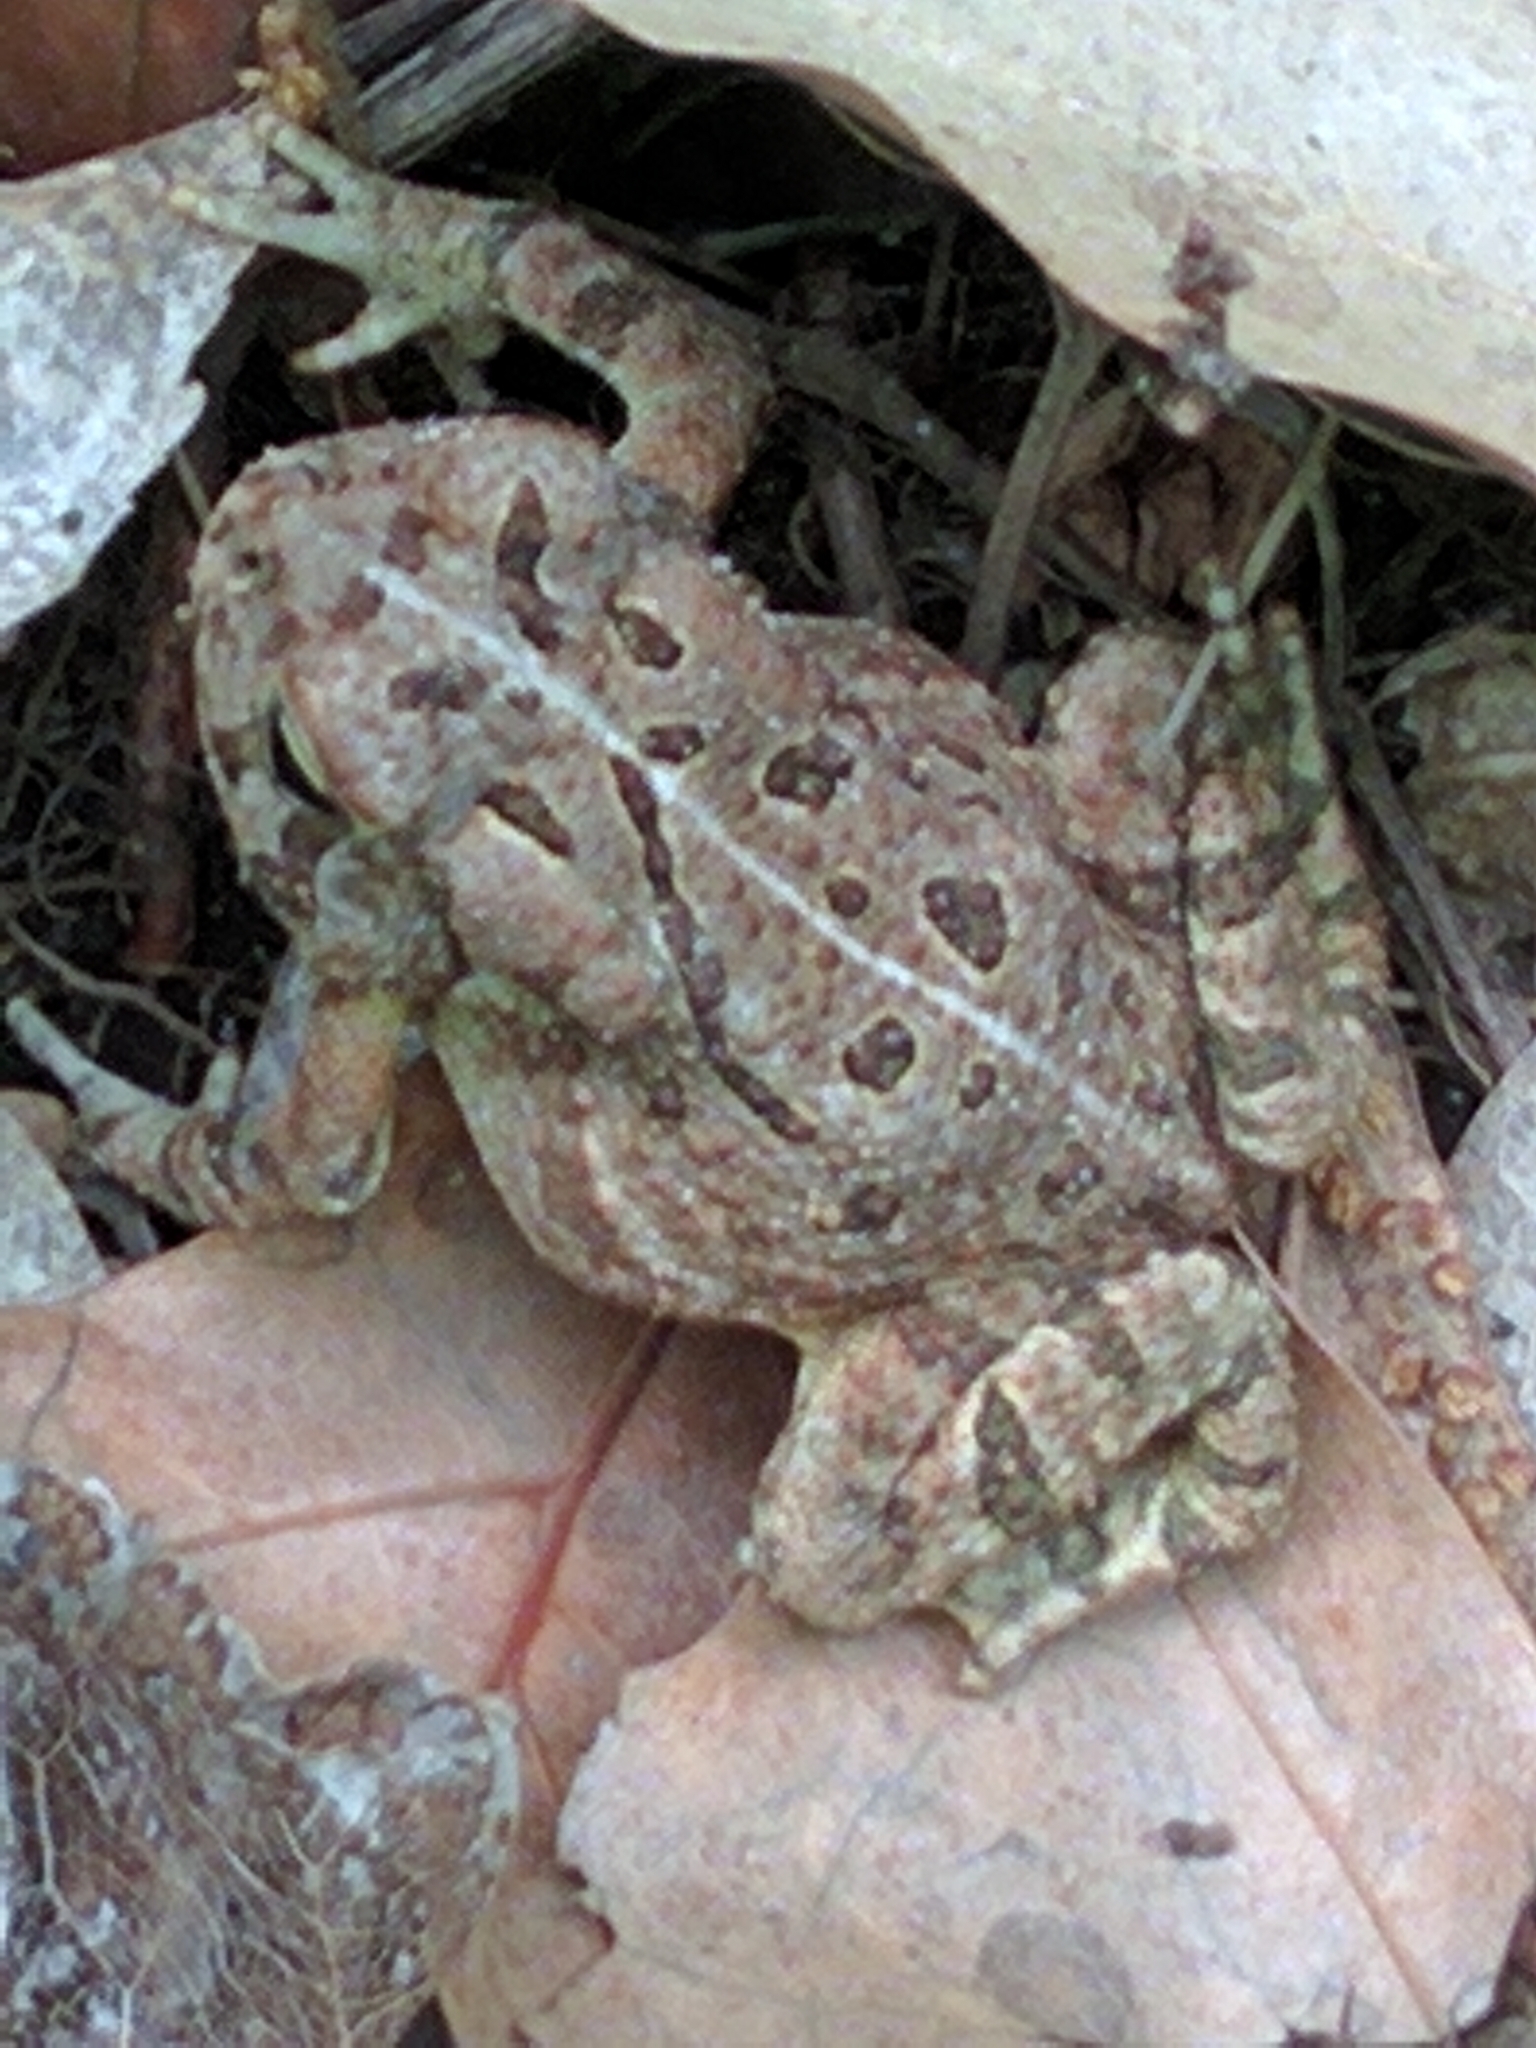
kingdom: Animalia
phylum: Chordata
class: Amphibia
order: Anura
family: Bufonidae
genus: Anaxyrus
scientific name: Anaxyrus fowleri
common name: Fowler's toad
